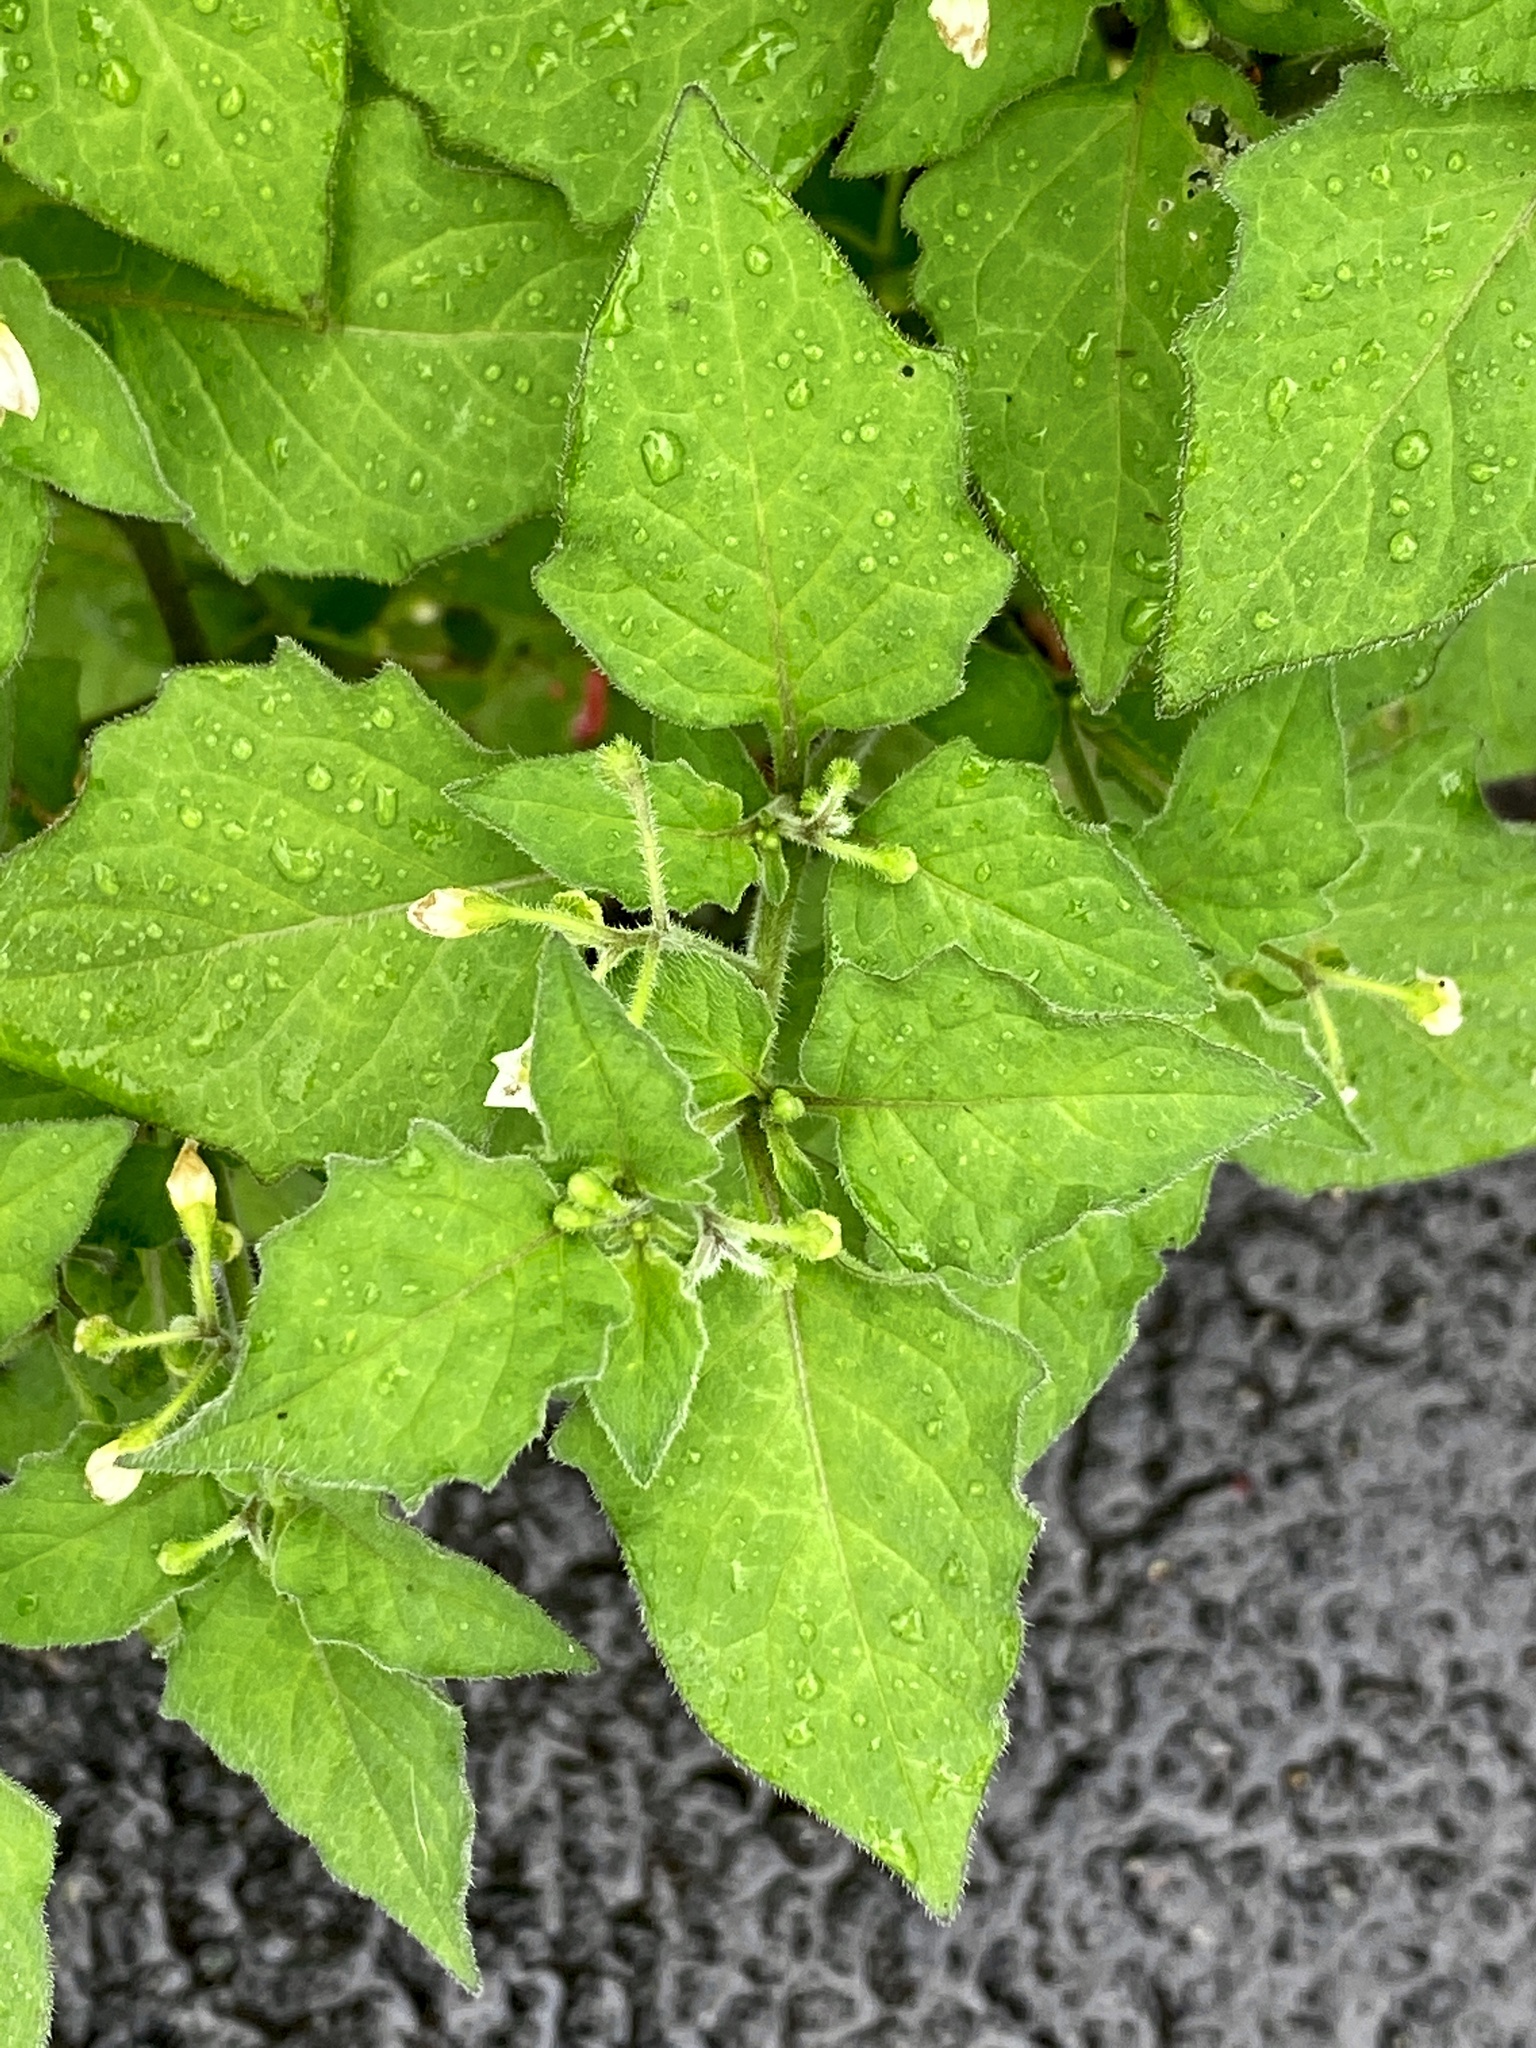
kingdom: Plantae
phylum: Tracheophyta
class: Magnoliopsida
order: Solanales
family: Solanaceae
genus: Solanum
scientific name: Solanum nigrum
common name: Black nightshade
